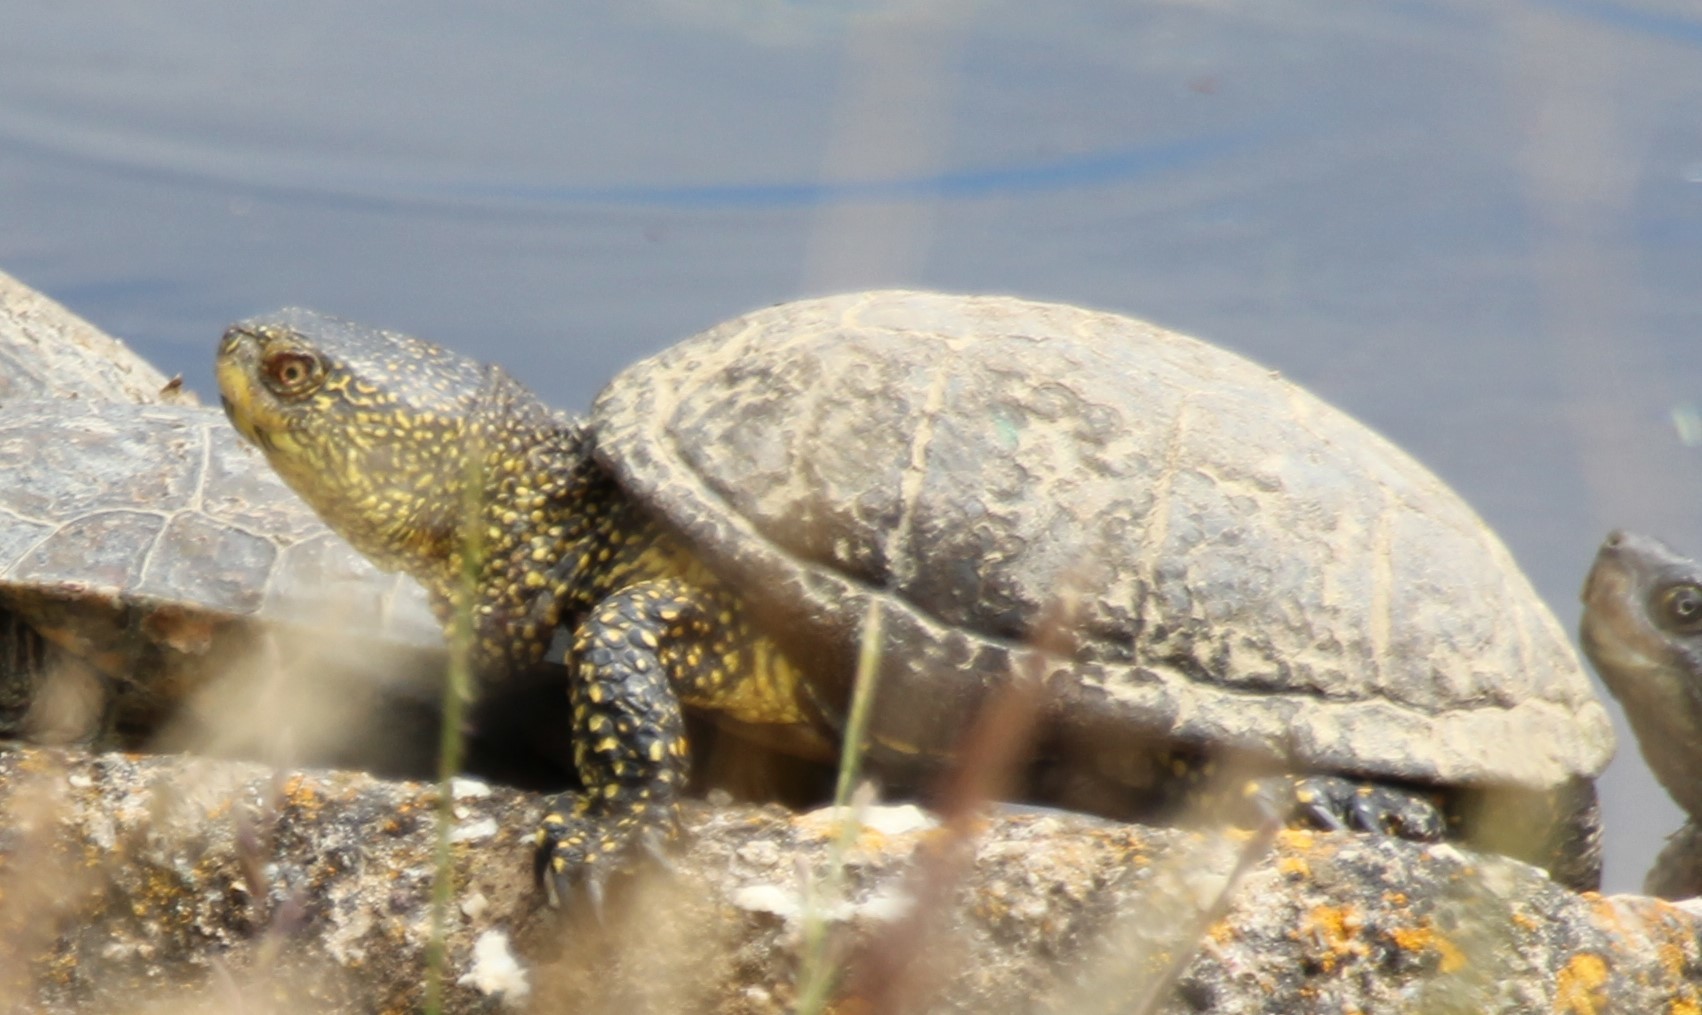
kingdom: Animalia
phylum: Chordata
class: Testudines
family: Emydidae
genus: Emys
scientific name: Emys orbicularis
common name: European pond turtle
